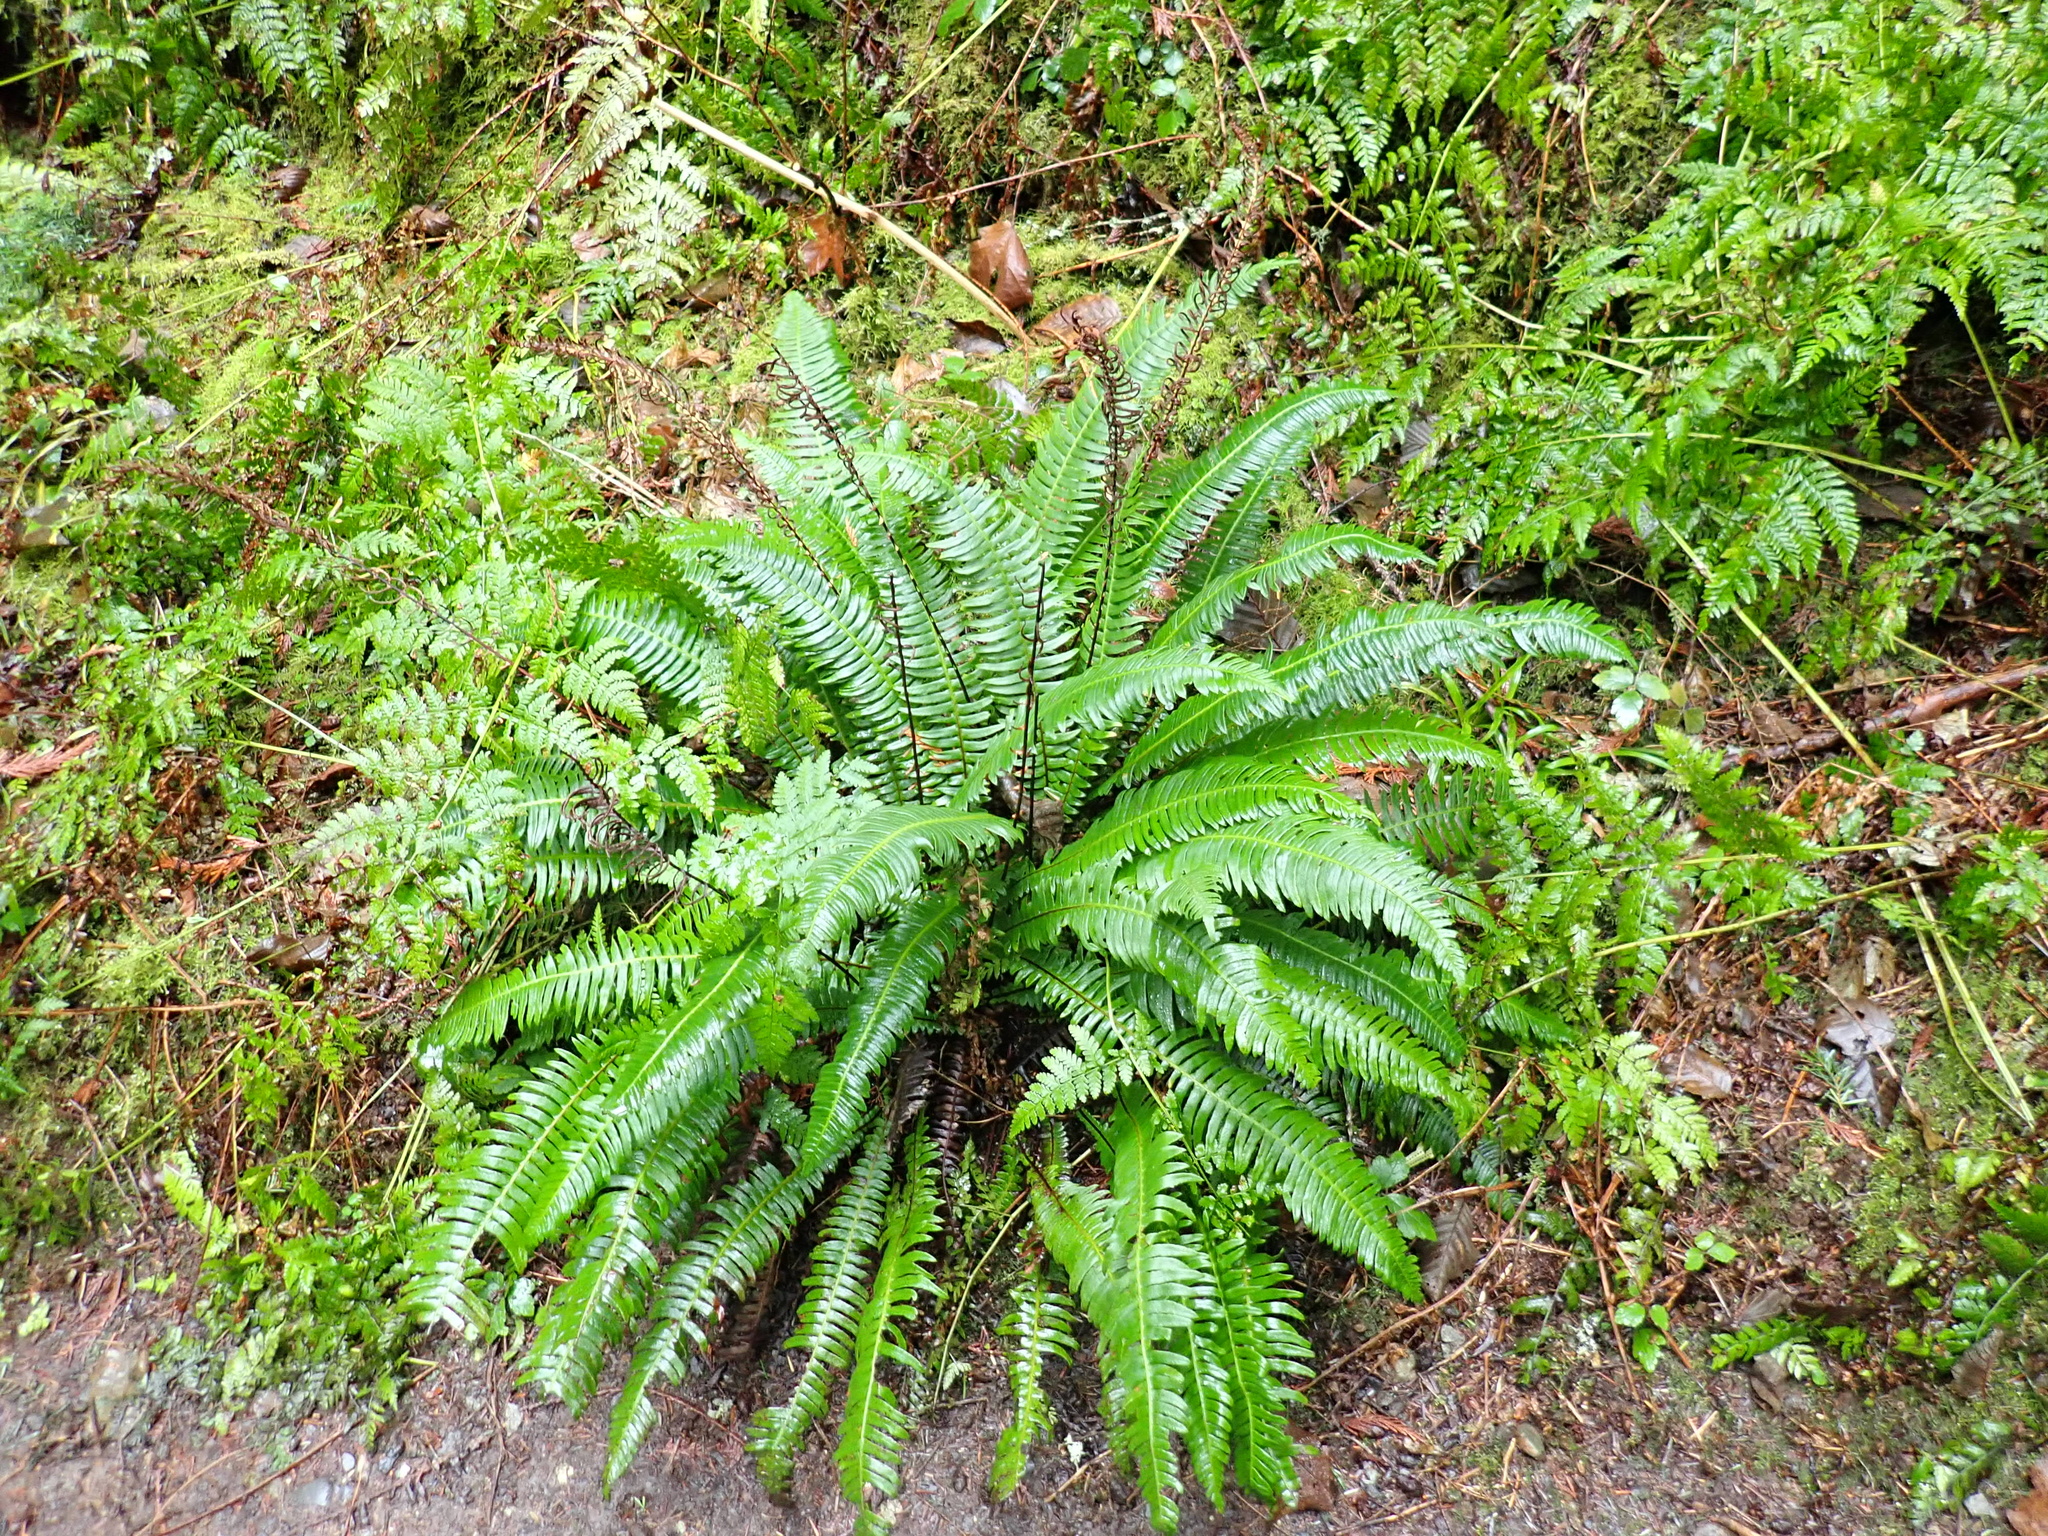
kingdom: Plantae
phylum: Tracheophyta
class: Polypodiopsida
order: Polypodiales
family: Blechnaceae
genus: Struthiopteris
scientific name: Struthiopteris spicant
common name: Deer fern
